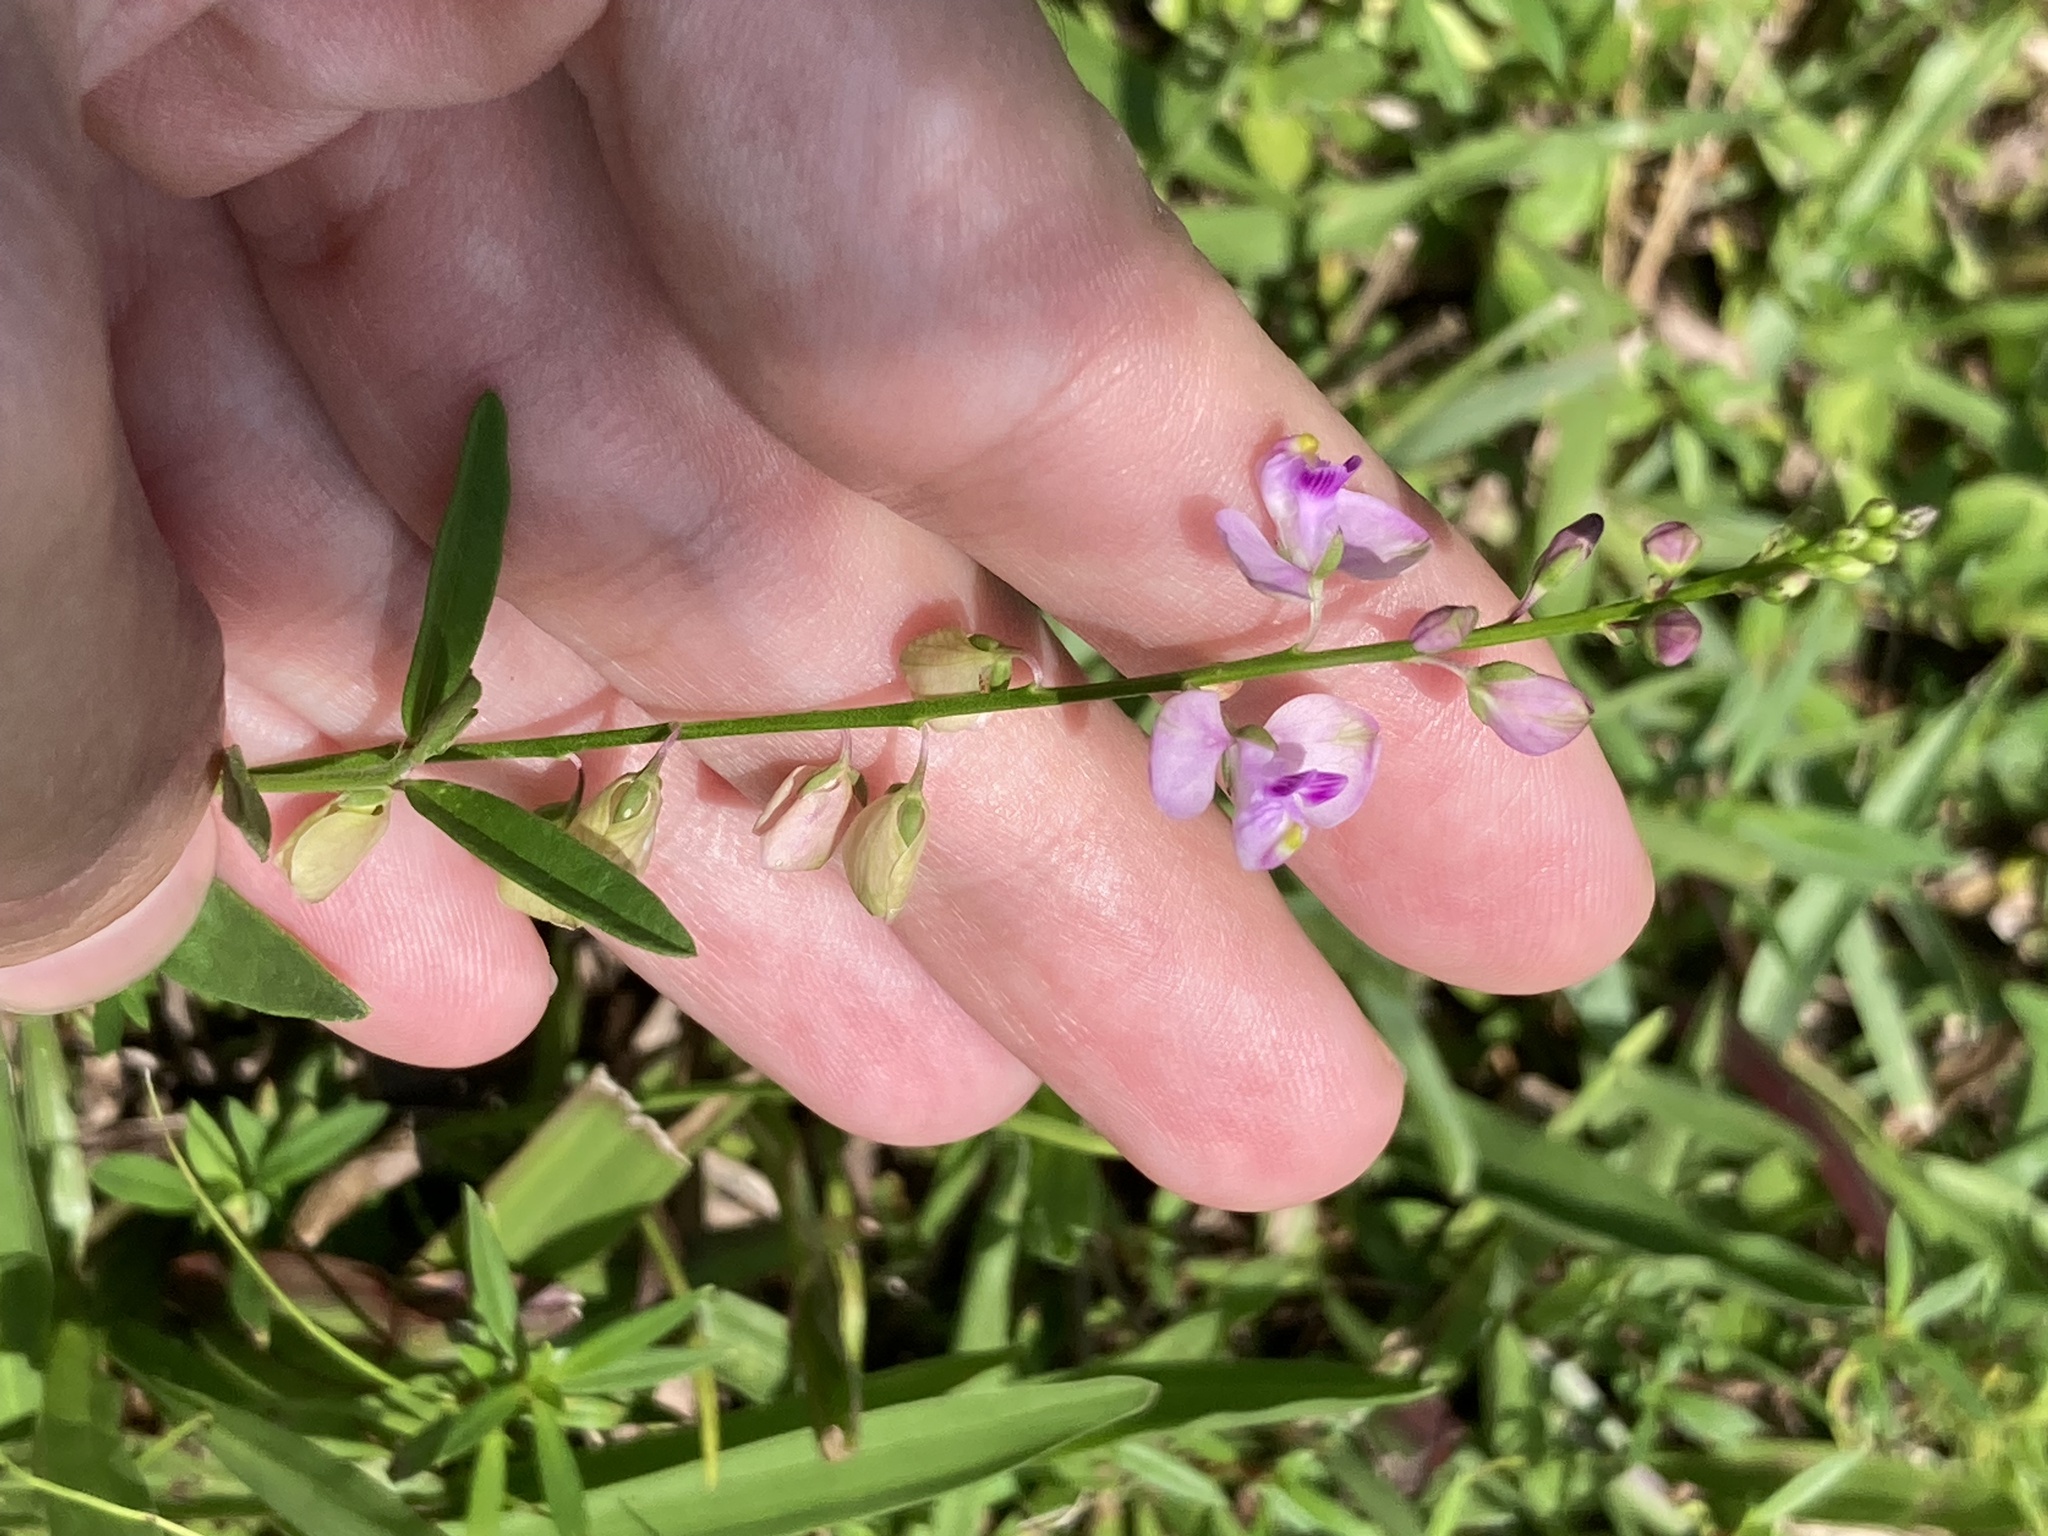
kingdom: Plantae
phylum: Tracheophyta
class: Magnoliopsida
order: Fabales
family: Polygalaceae
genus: Asemeia
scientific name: Asemeia grandiflora
